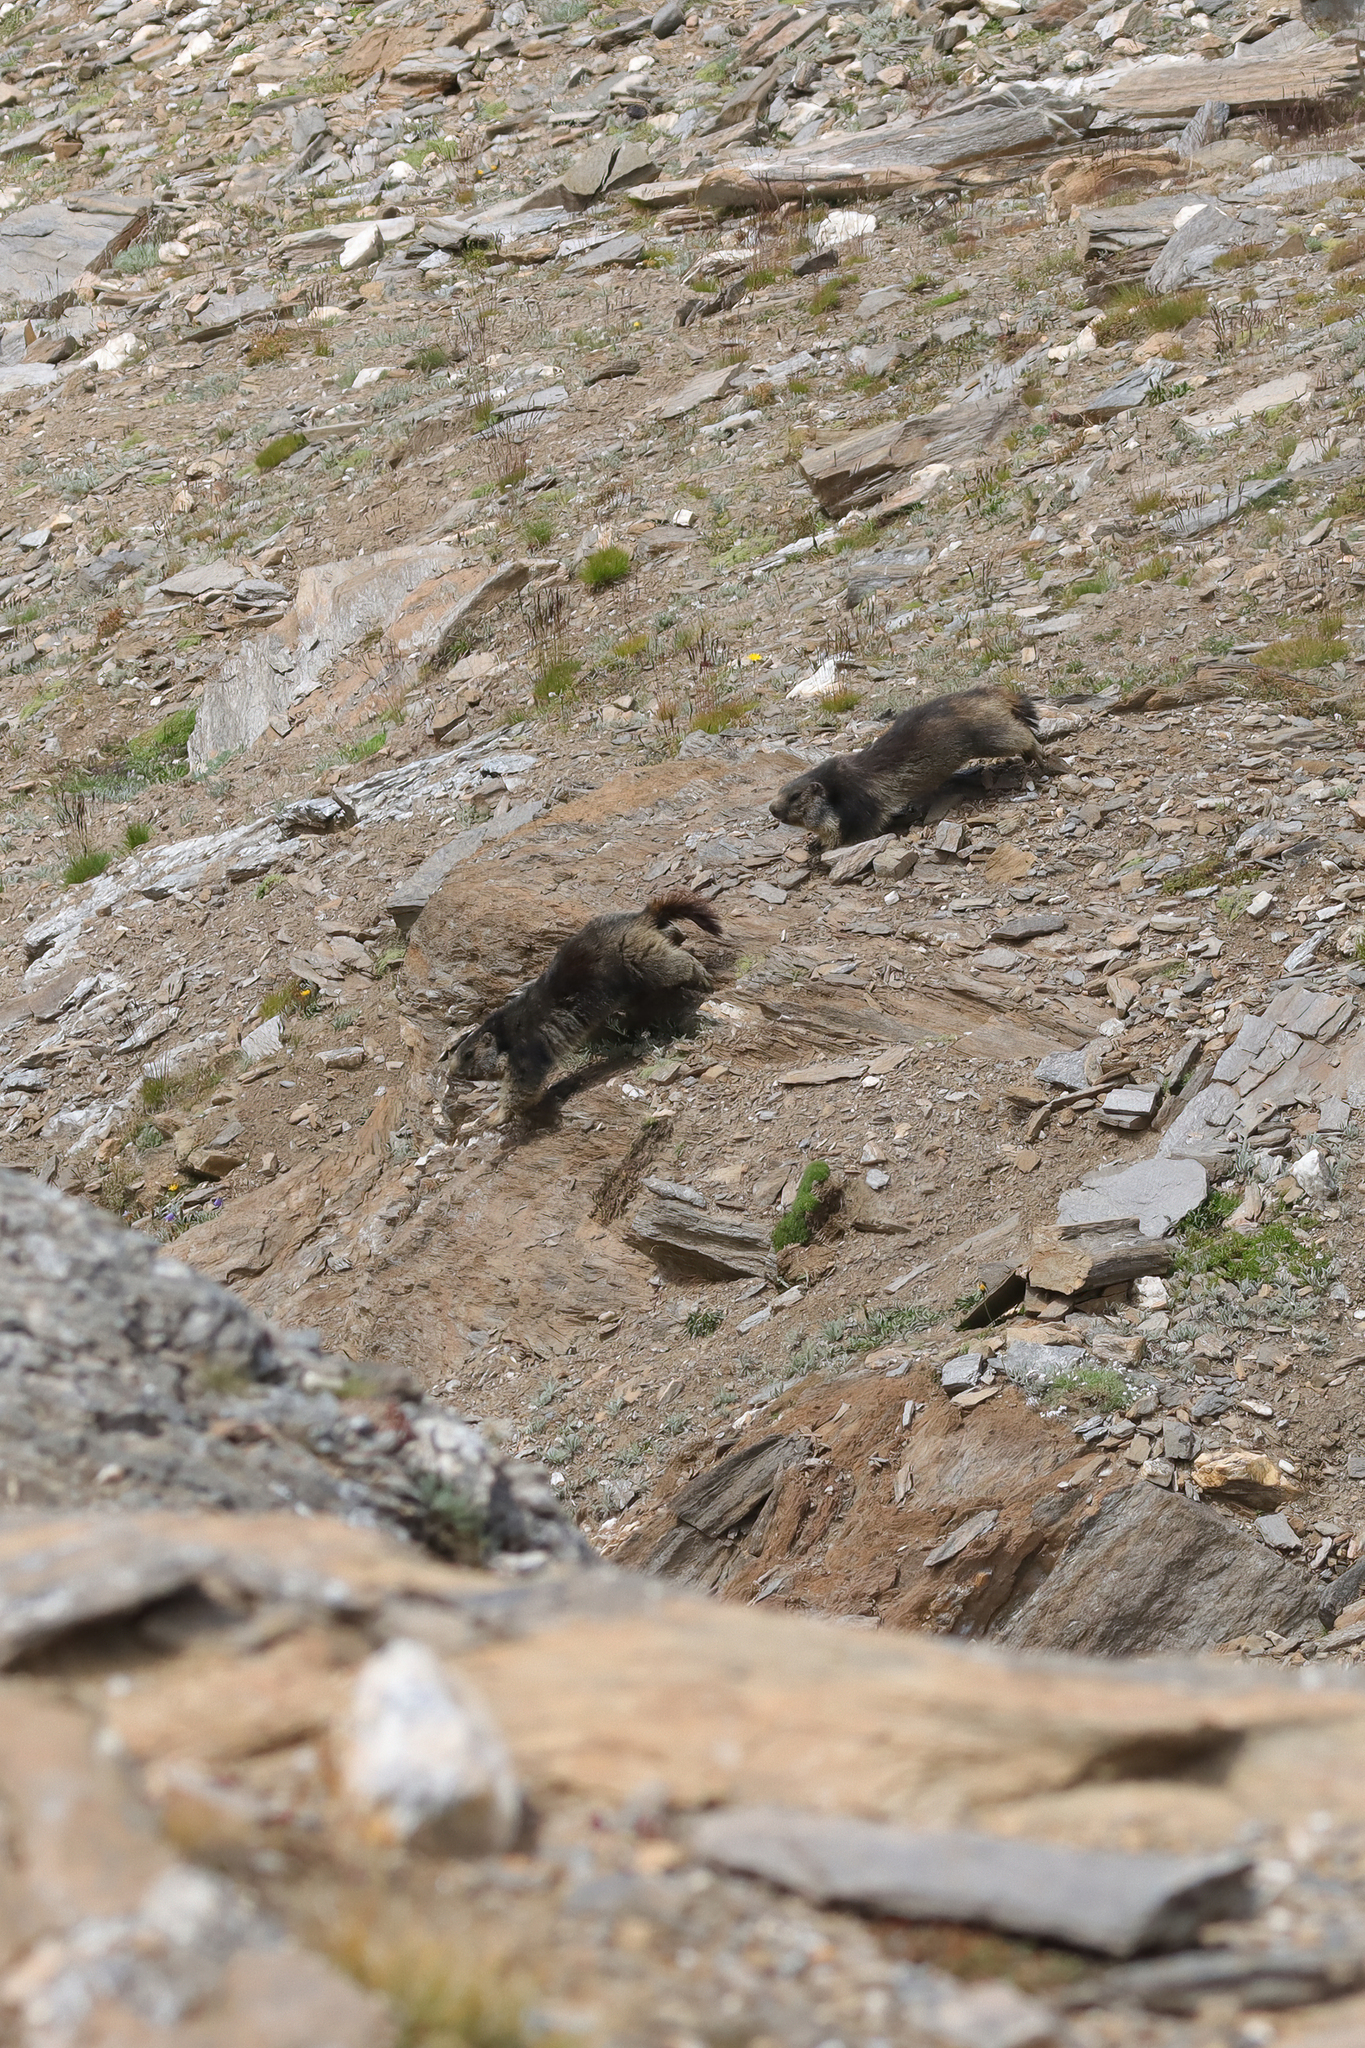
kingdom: Animalia
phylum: Chordata
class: Mammalia
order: Rodentia
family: Sciuridae
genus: Marmota
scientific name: Marmota marmota
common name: Alpine marmot
